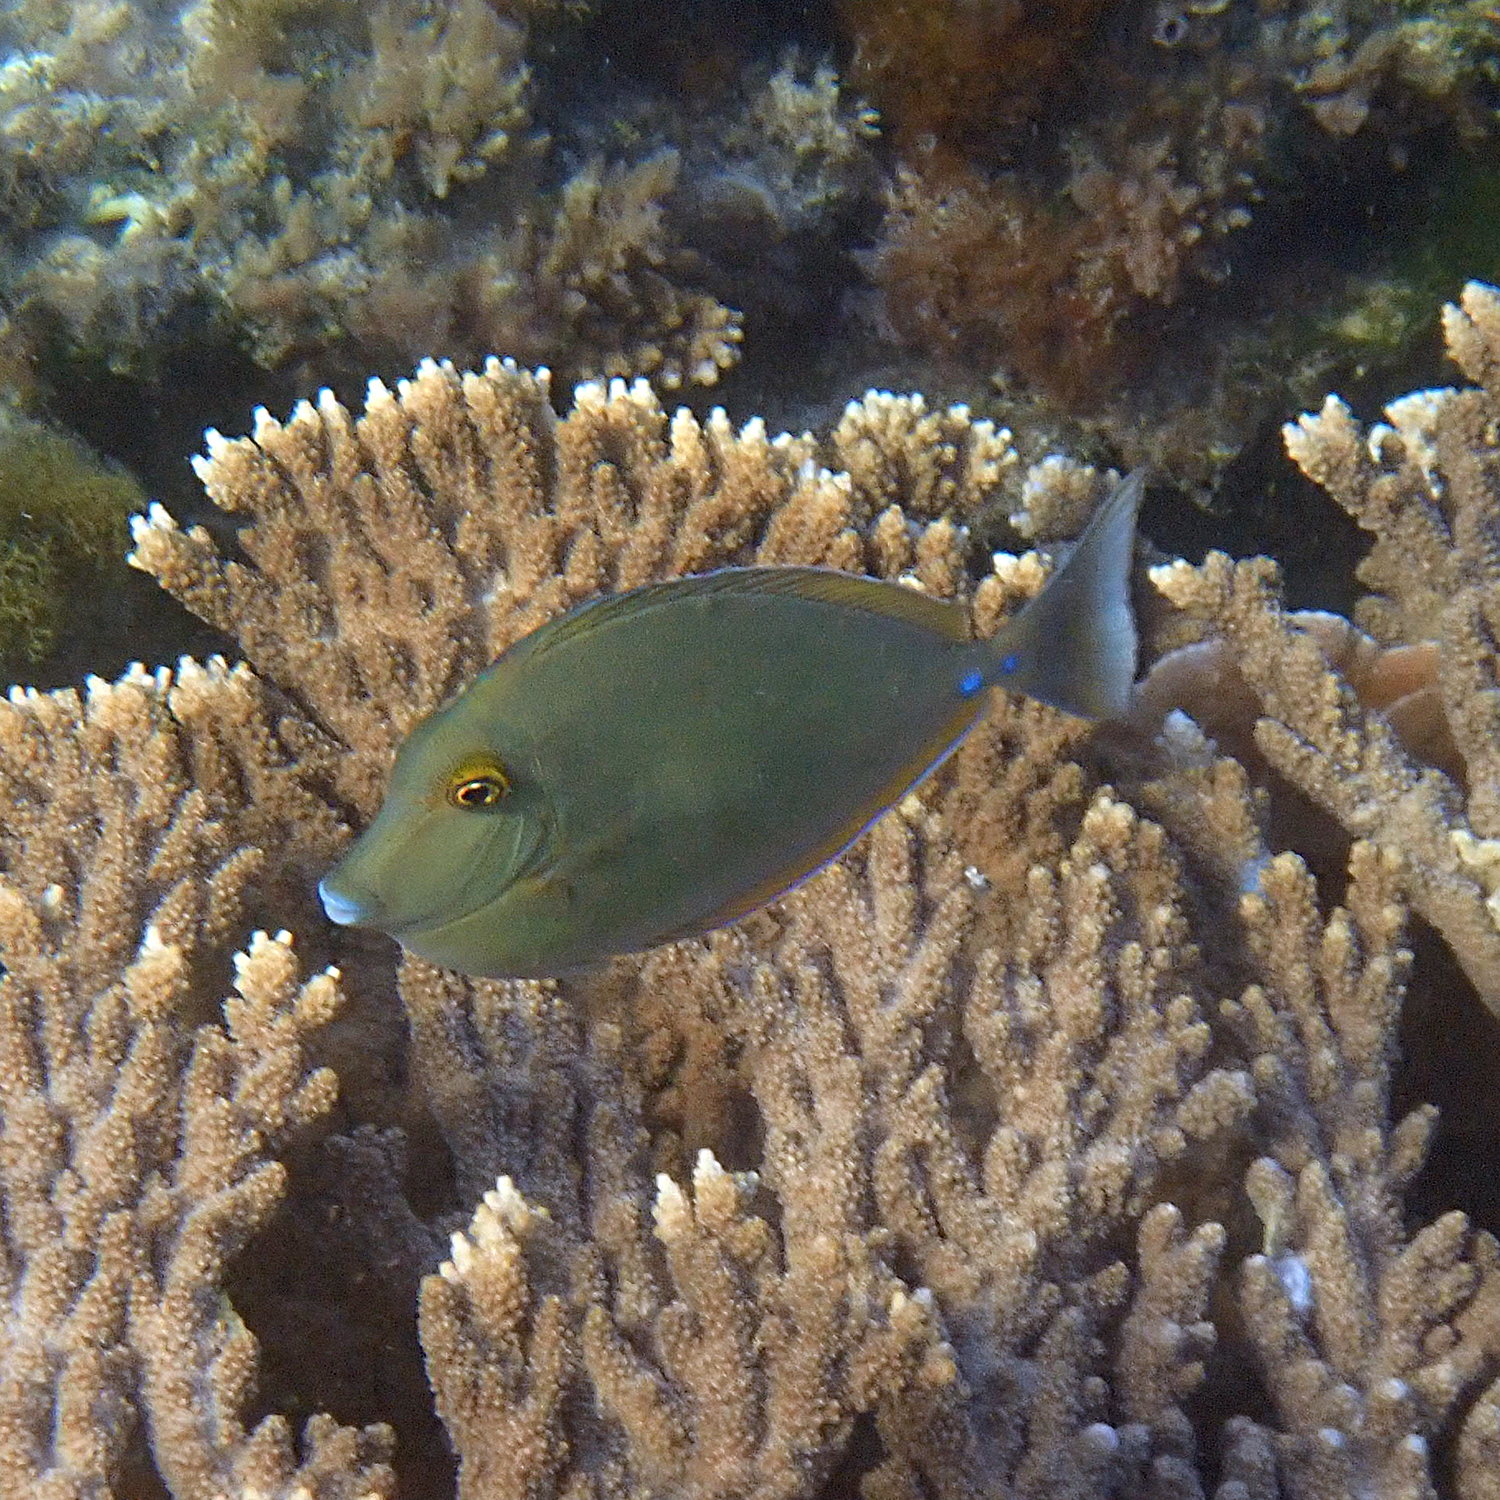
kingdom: Animalia
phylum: Chordata
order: Perciformes
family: Acanthuridae
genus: Naso
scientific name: Naso unicornis
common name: Bluespine unicornfish
